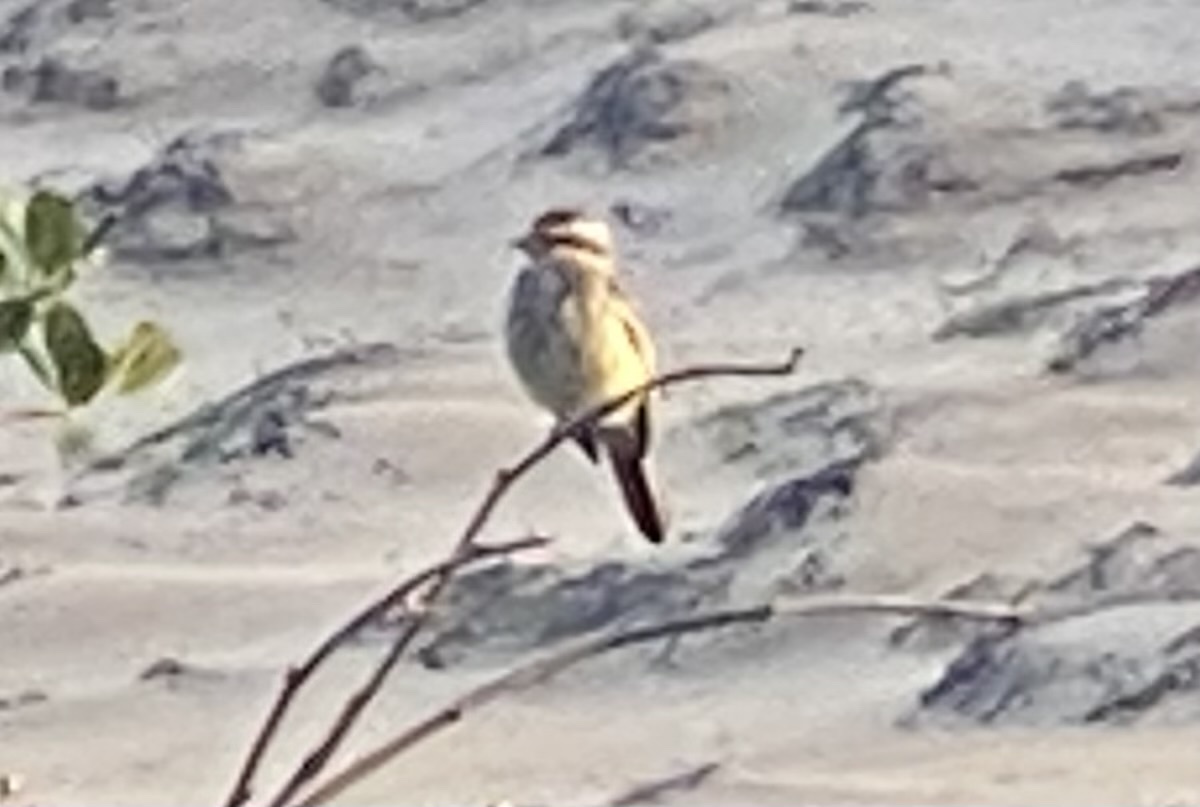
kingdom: Animalia
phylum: Chordata
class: Aves
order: Passeriformes
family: Tyrannidae
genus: Empidonomus
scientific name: Empidonomus varius
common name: Variegated flycatcher
